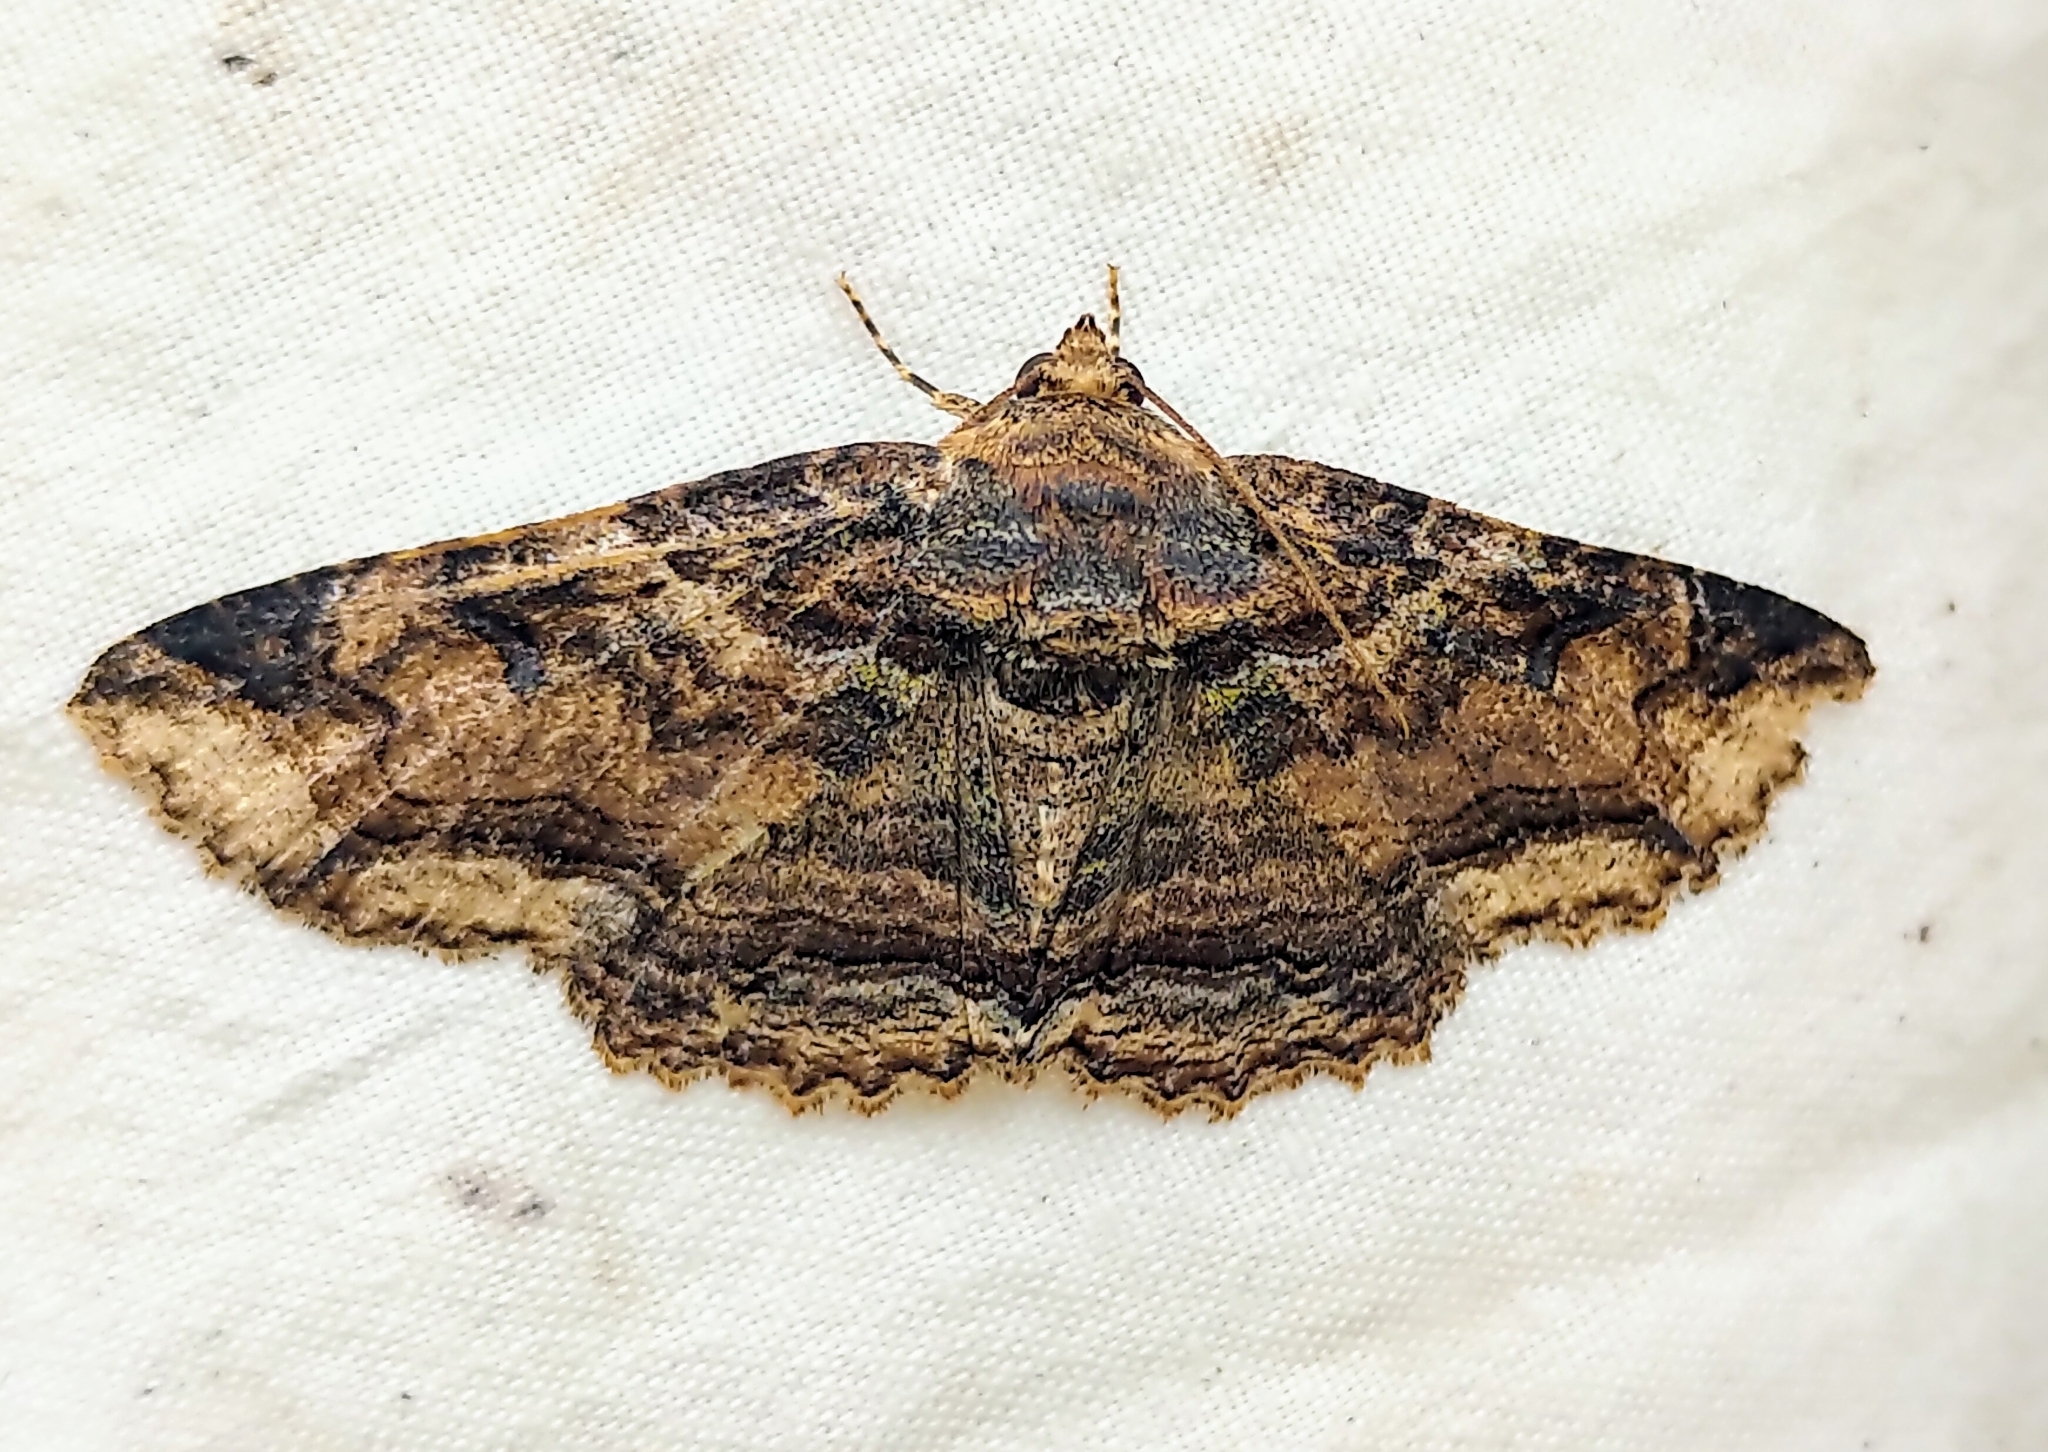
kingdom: Animalia
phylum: Arthropoda
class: Insecta
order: Lepidoptera
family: Erebidae
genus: Zale
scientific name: Zale minerea
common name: Colorful zale moth
